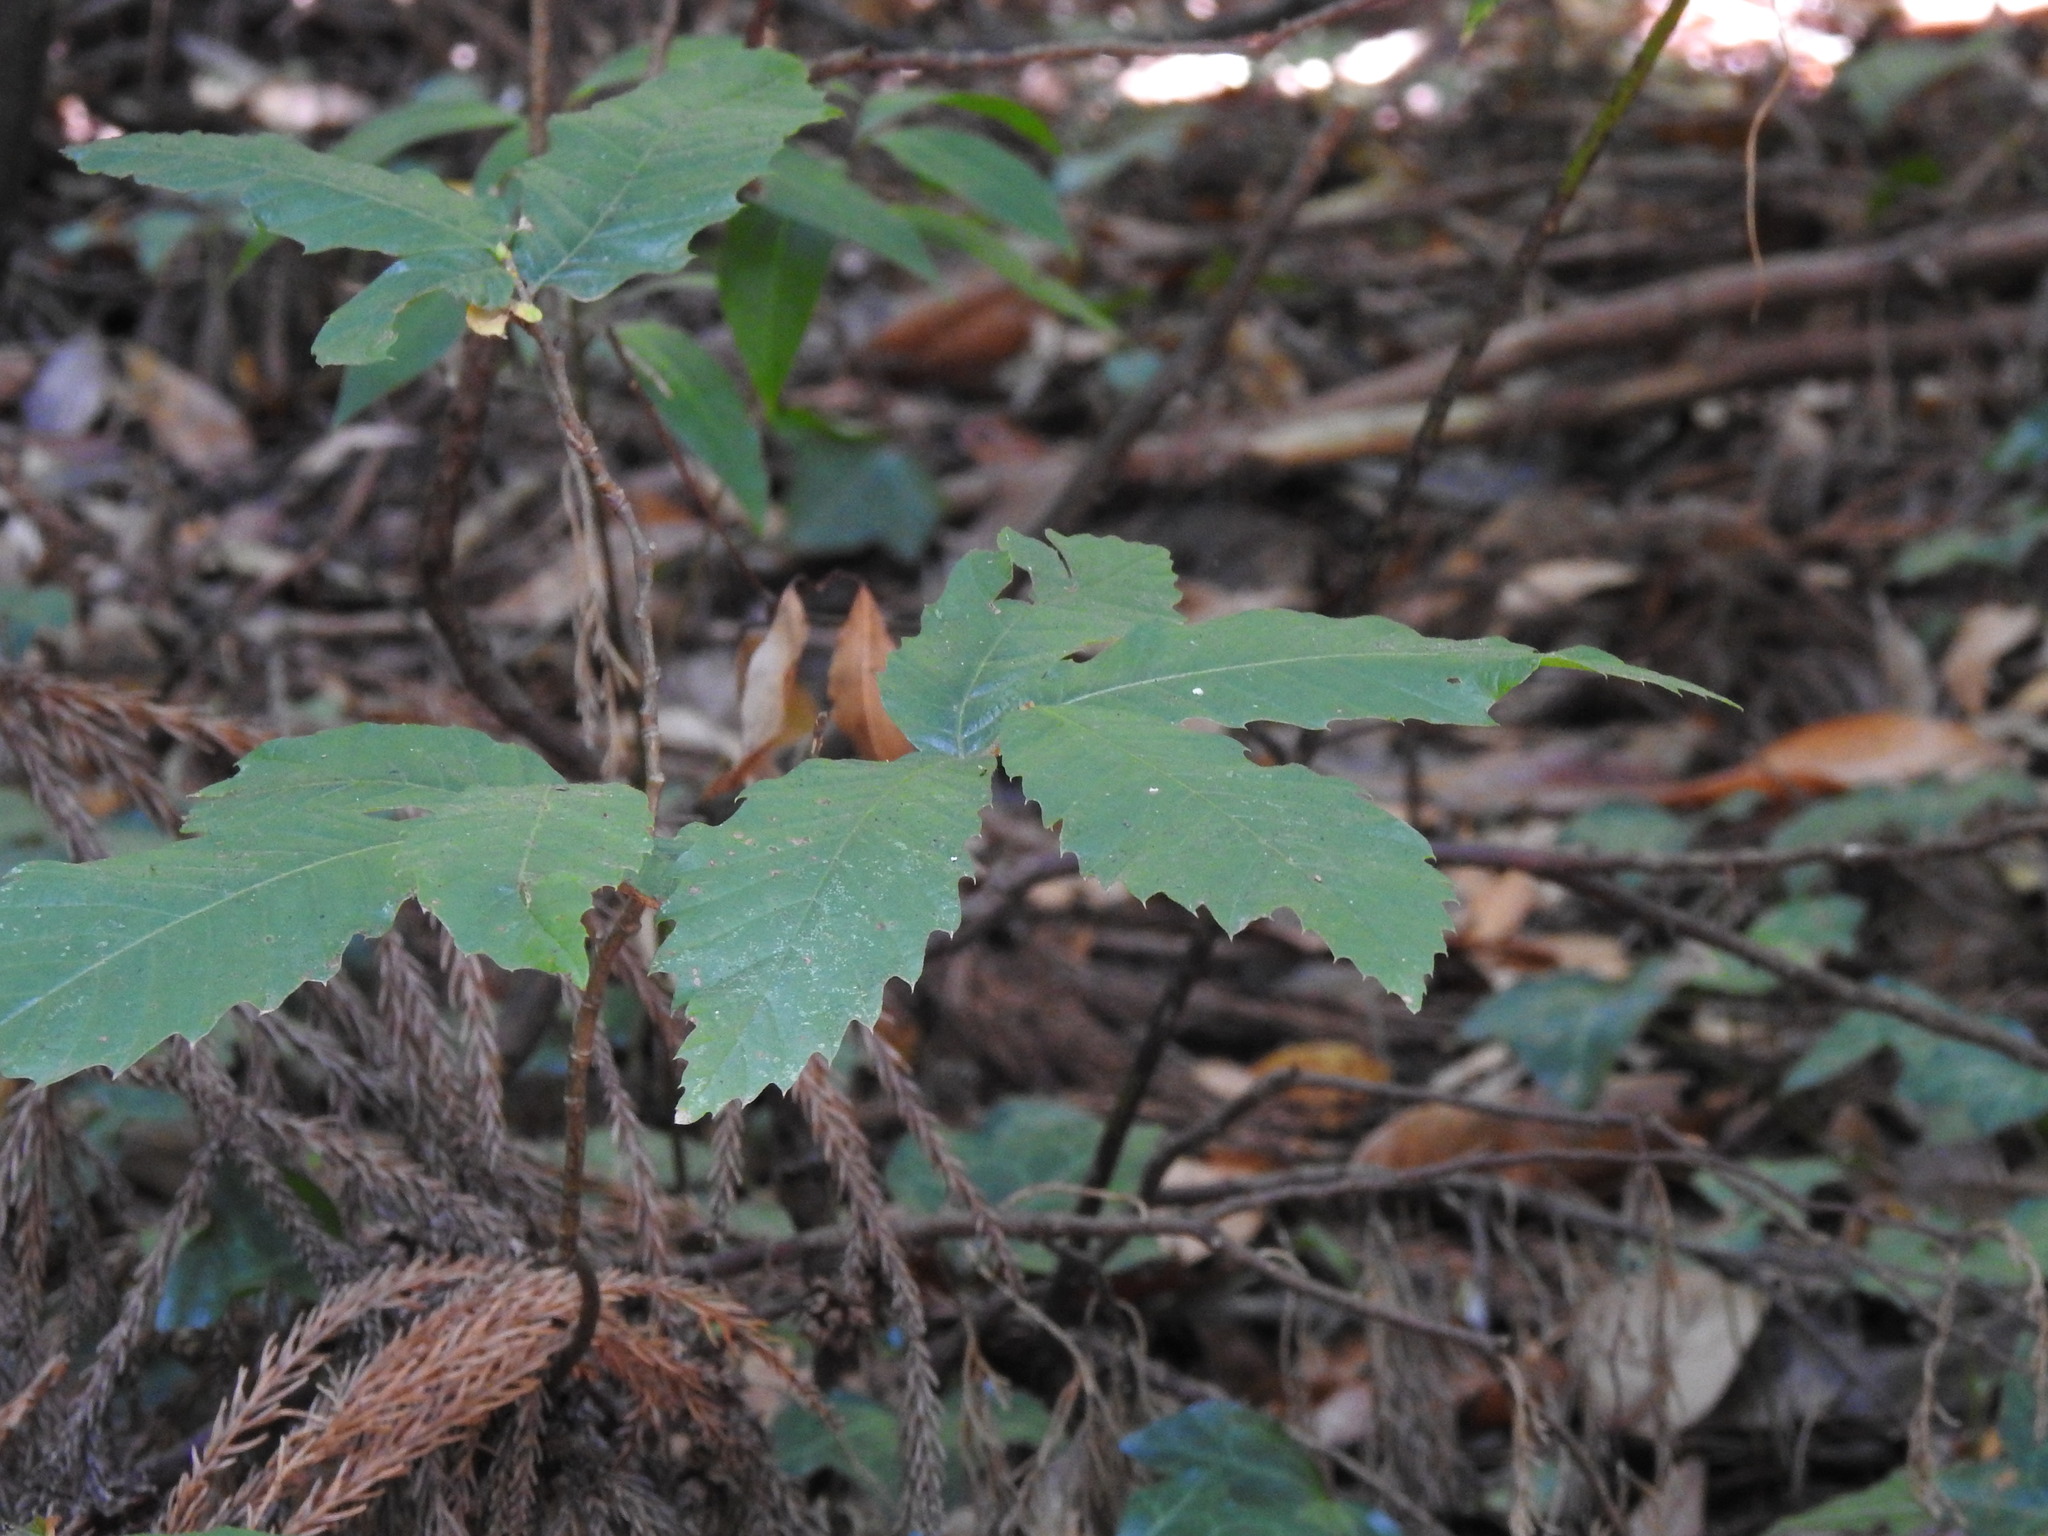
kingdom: Plantae
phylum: Tracheophyta
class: Magnoliopsida
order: Fagales
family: Fagaceae
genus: Castanea
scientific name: Castanea sativa
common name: Sweet chestnut
